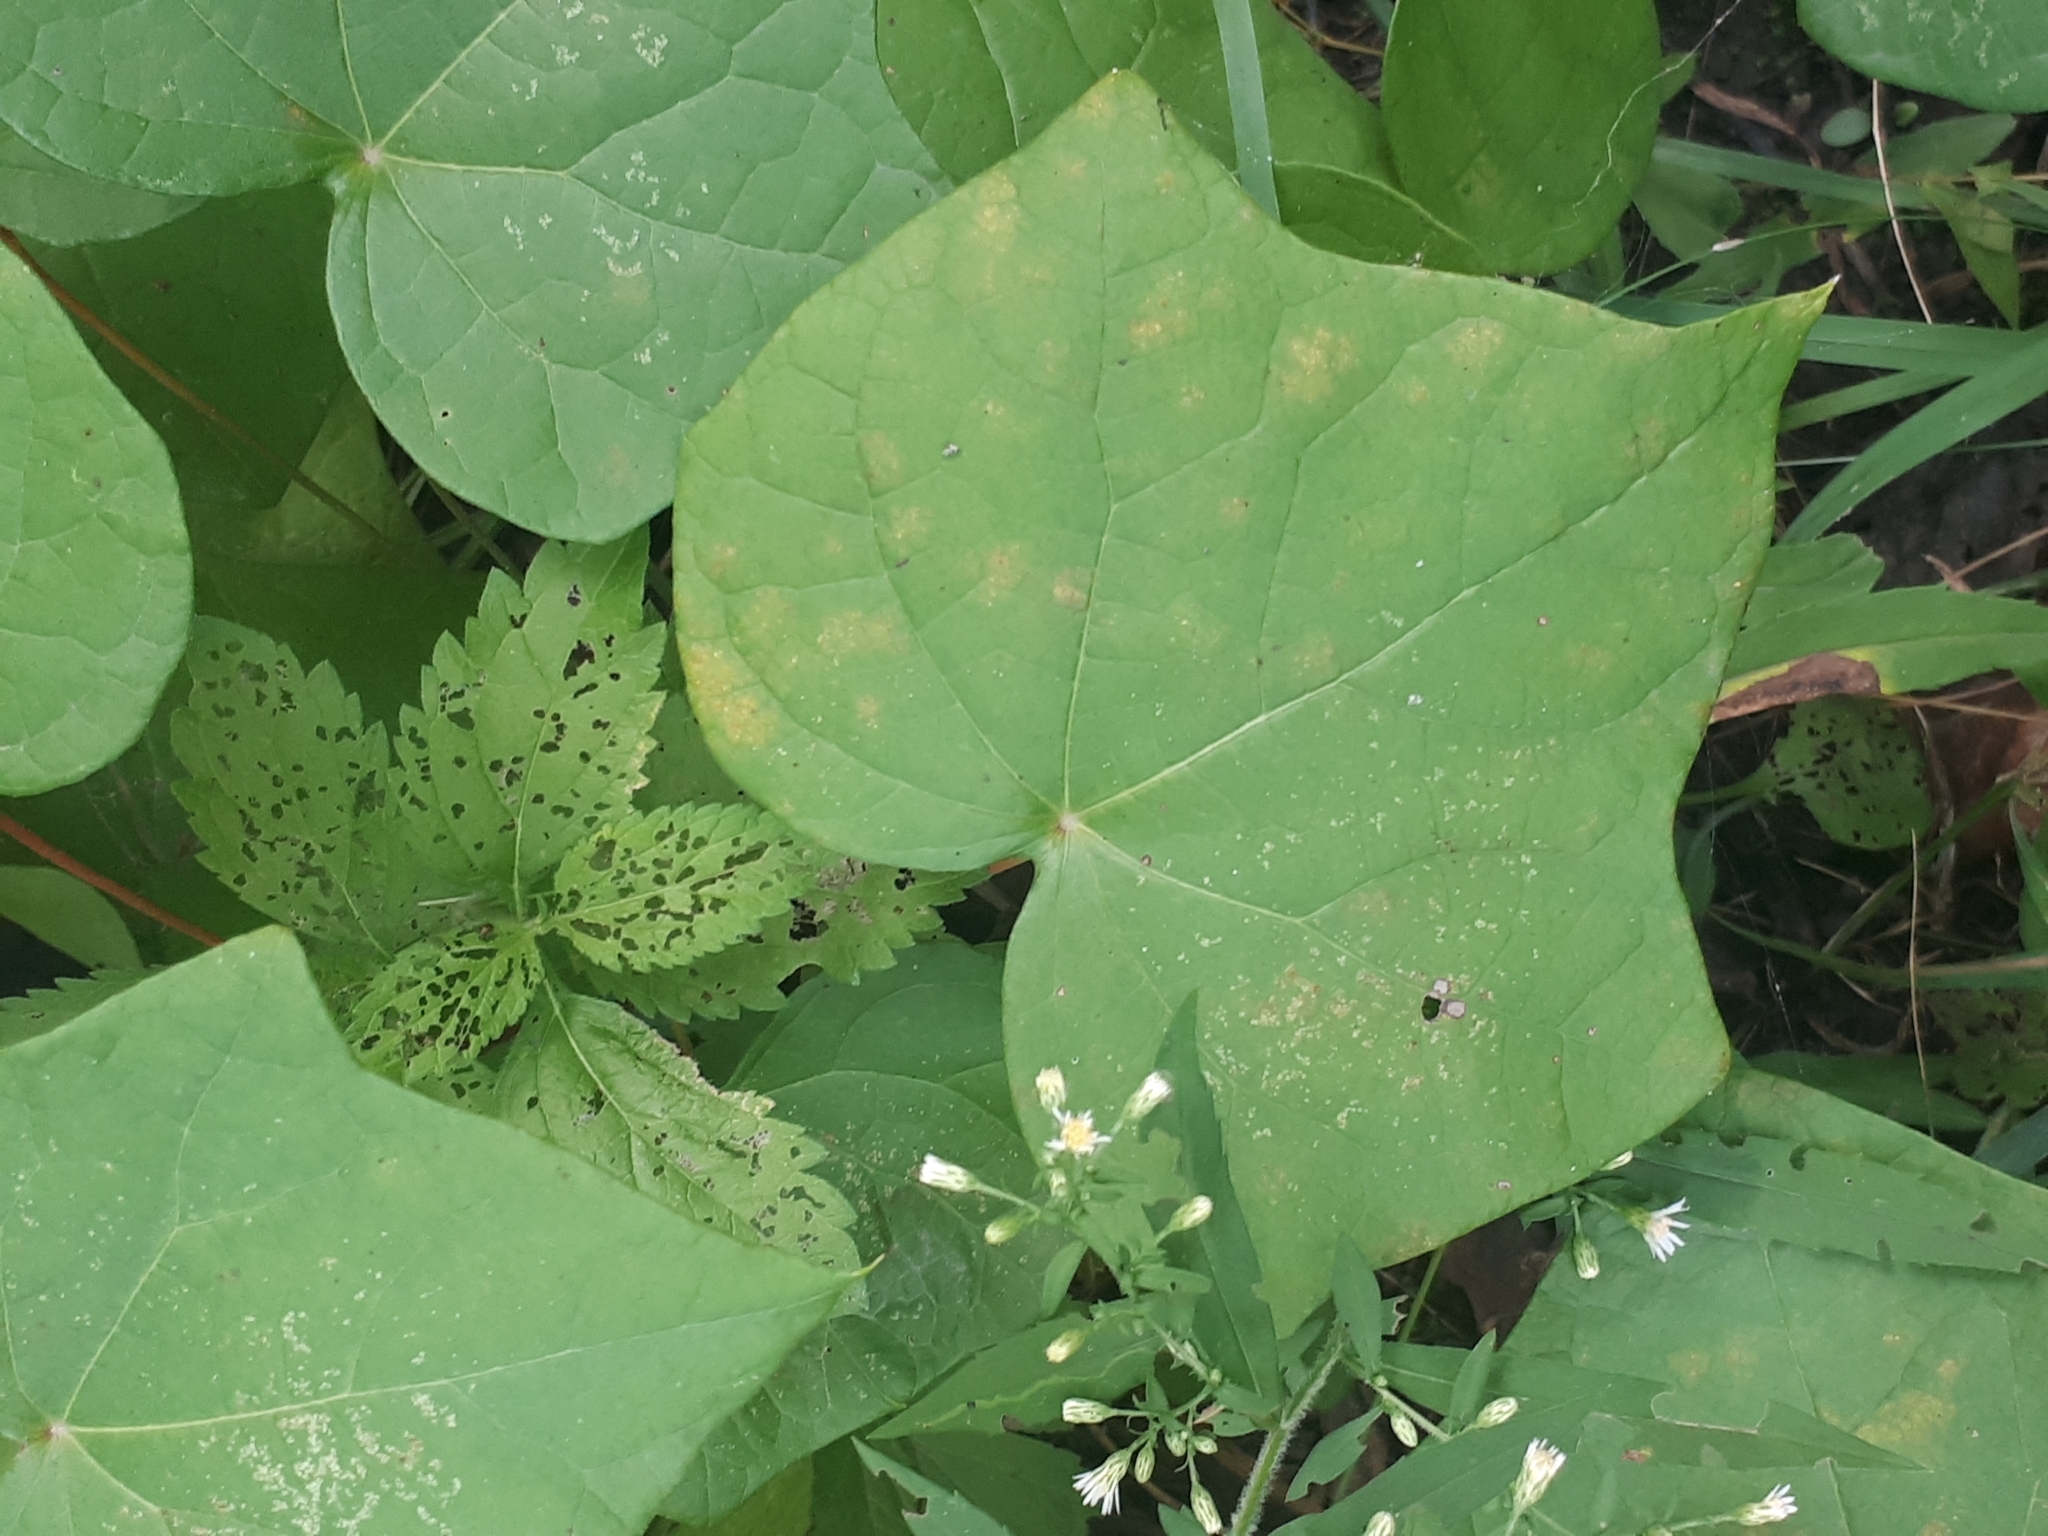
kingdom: Plantae
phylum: Tracheophyta
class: Magnoliopsida
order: Ranunculales
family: Menispermaceae
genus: Menispermum
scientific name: Menispermum canadense
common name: Moonseed
